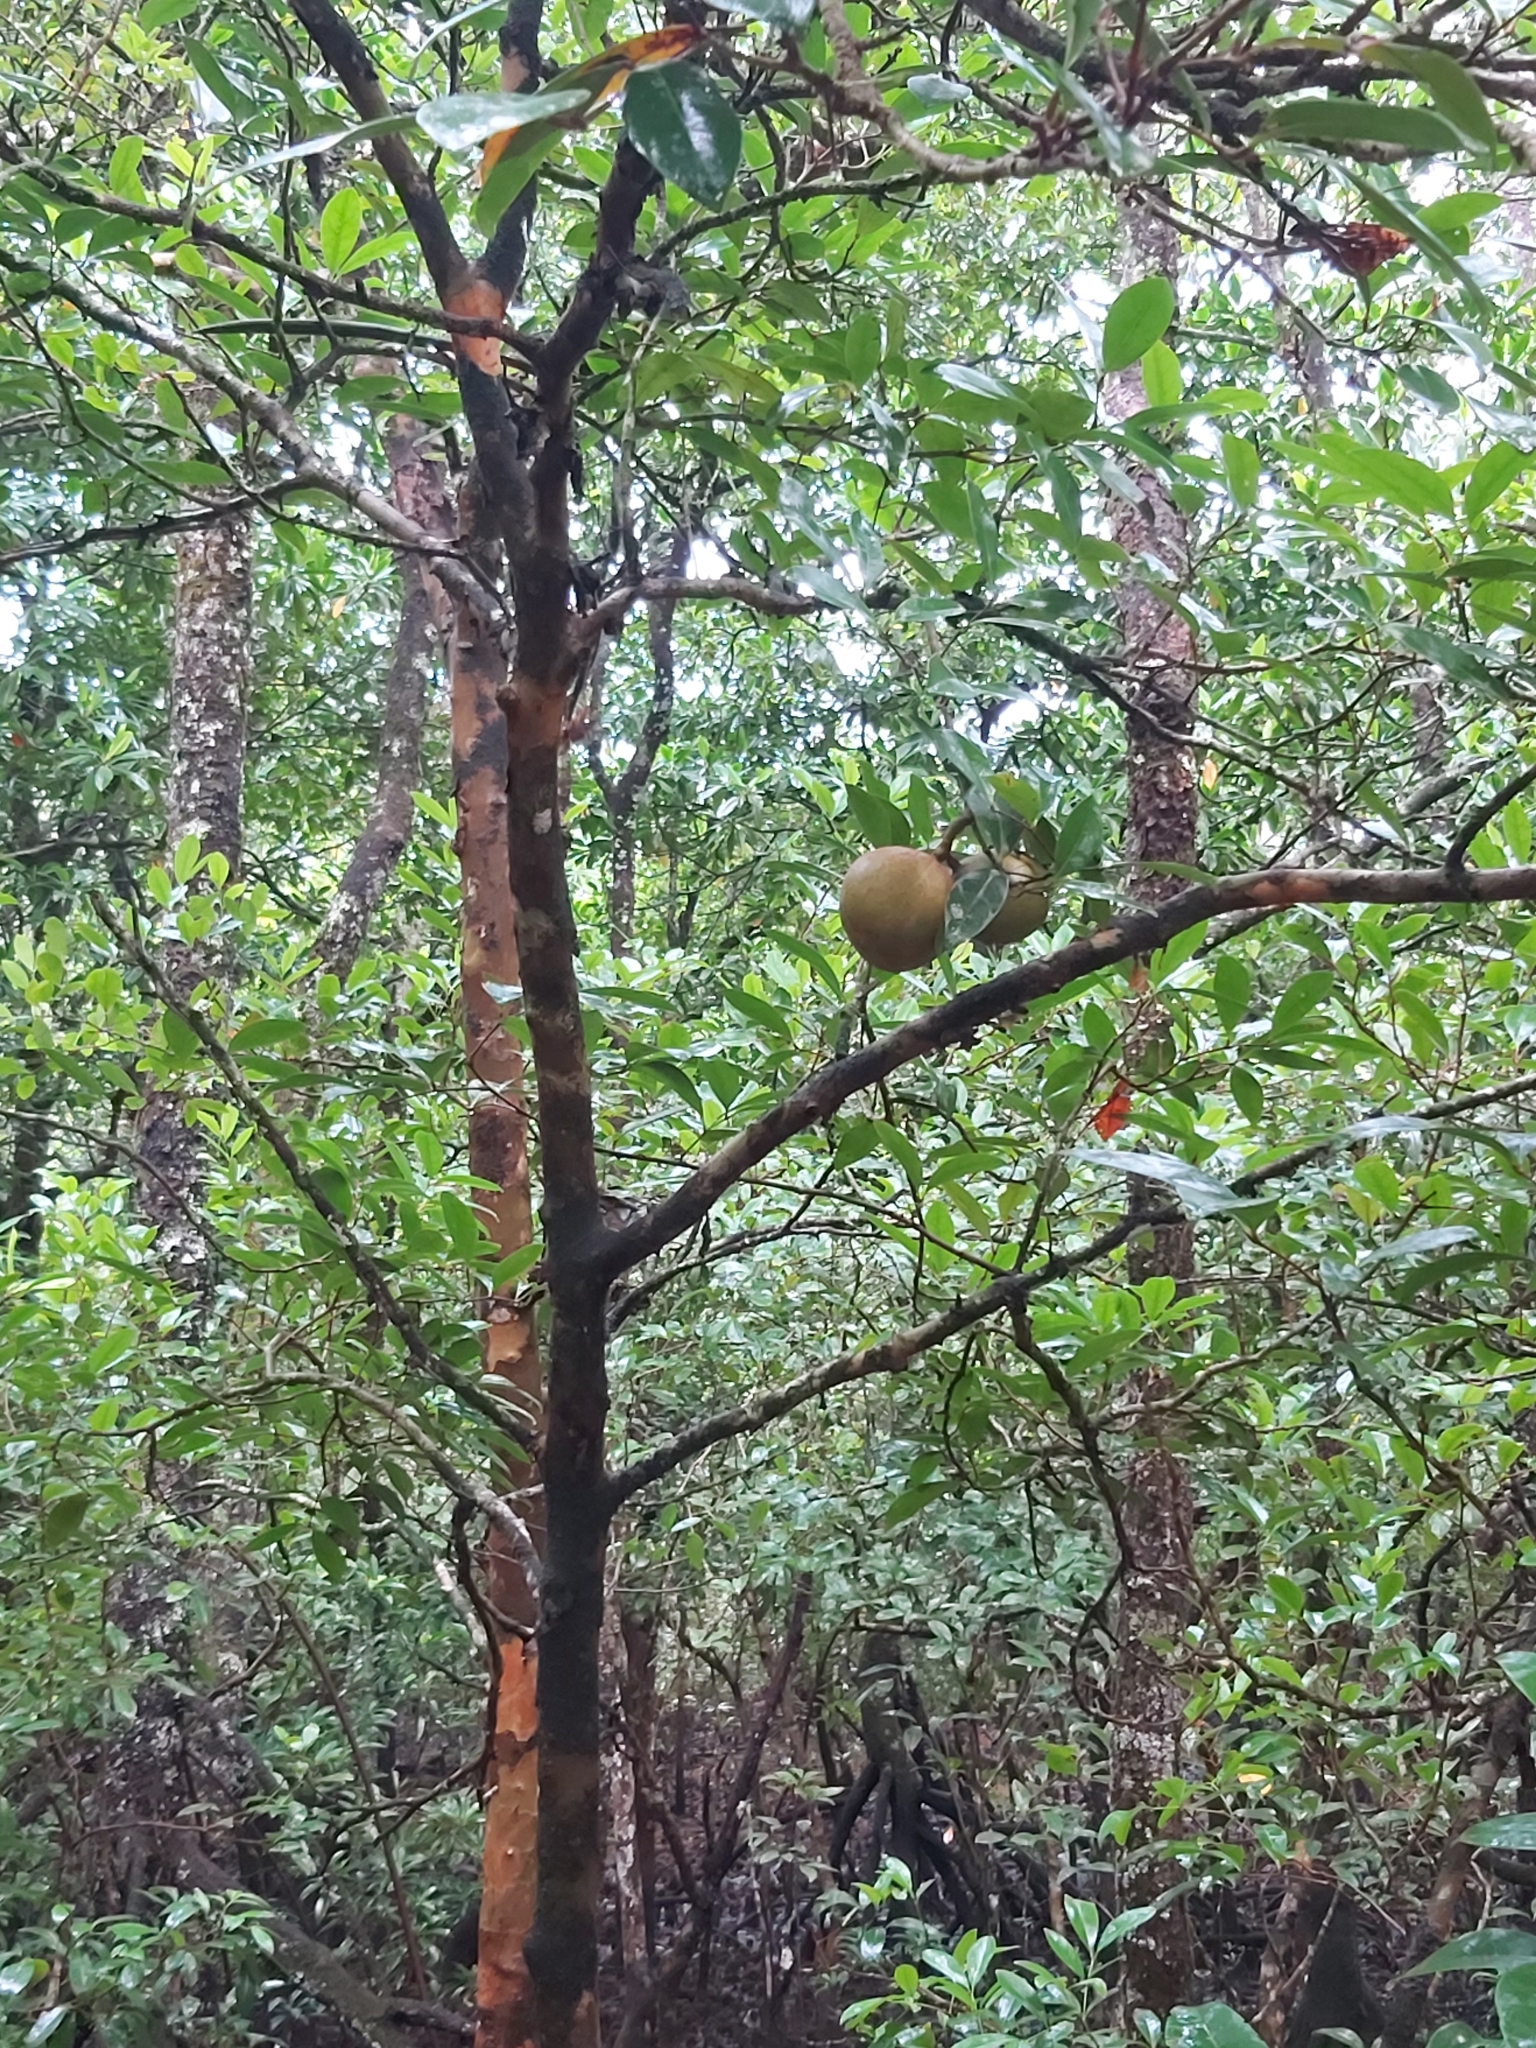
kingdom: Plantae
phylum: Tracheophyta
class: Magnoliopsida
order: Sapindales
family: Meliaceae
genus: Xylocarpus
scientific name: Xylocarpus granatum
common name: Apple mangrove
